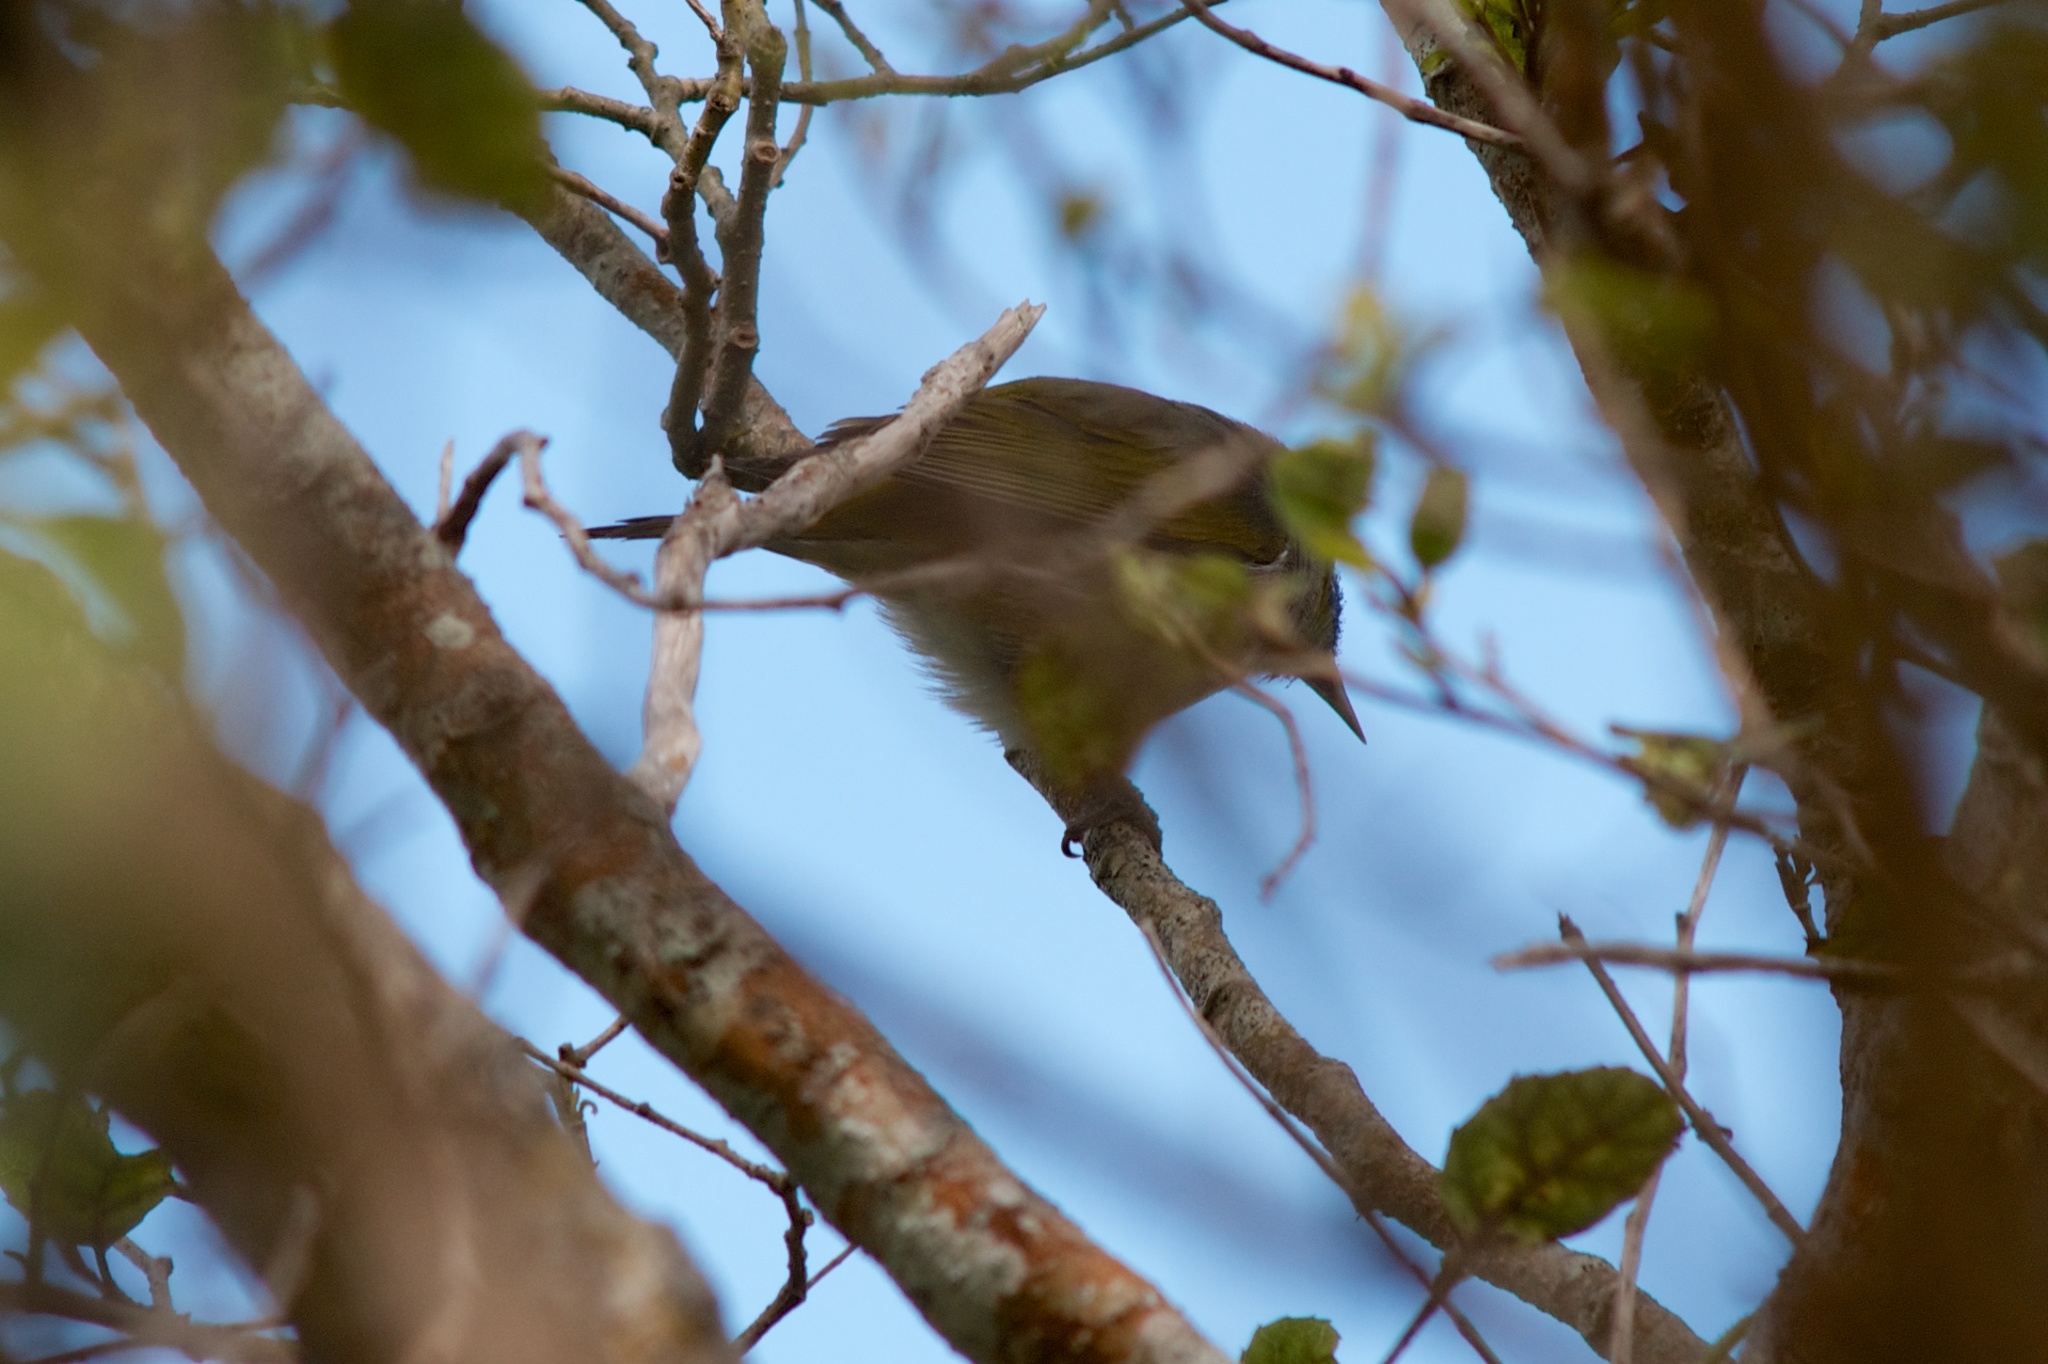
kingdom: Animalia
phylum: Chordata
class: Aves
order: Passeriformes
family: Zosteropidae
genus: Zosterops
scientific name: Zosterops lateralis
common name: Silvereye
